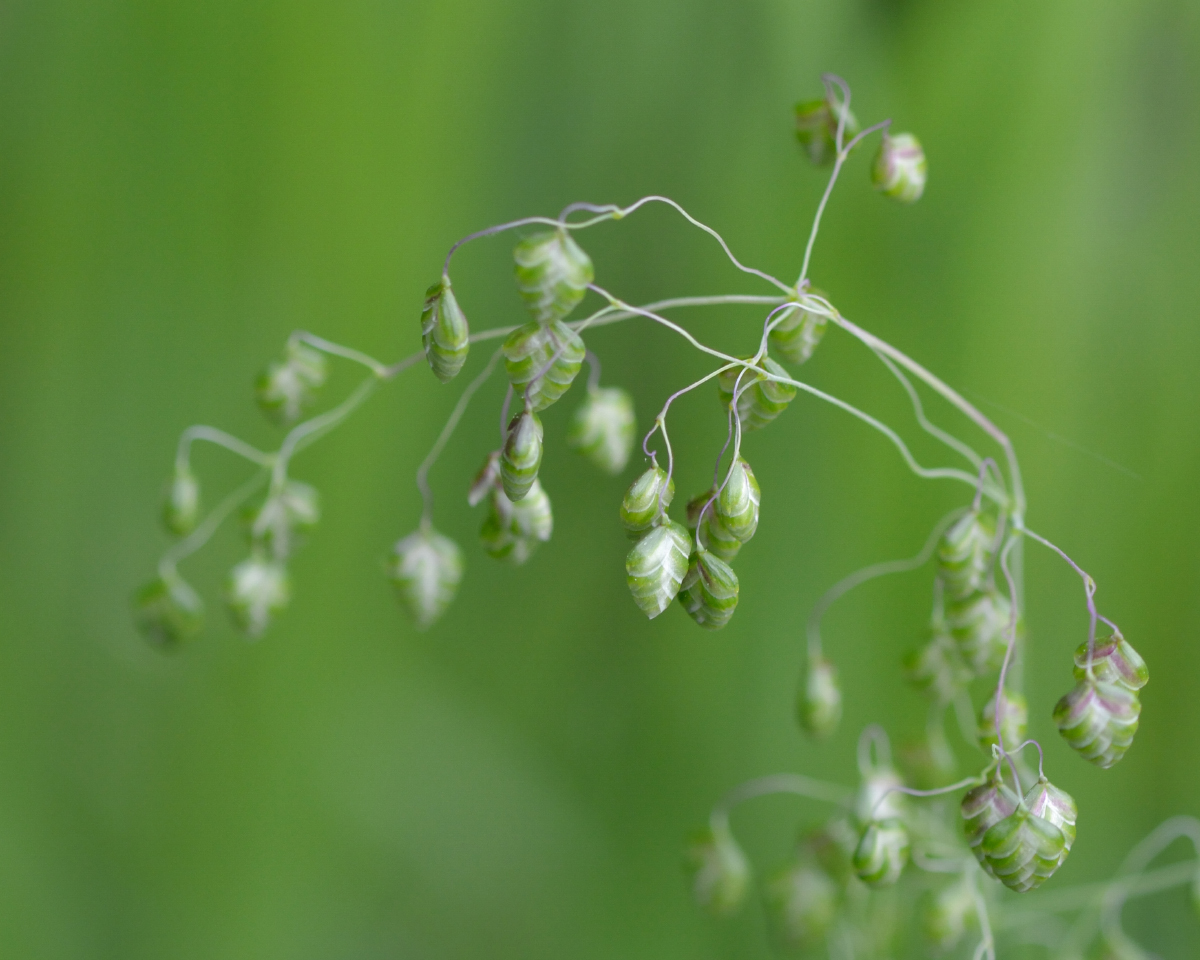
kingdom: Plantae
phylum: Tracheophyta
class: Liliopsida
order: Poales
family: Poaceae
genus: Briza
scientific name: Briza media
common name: Quaking grass
